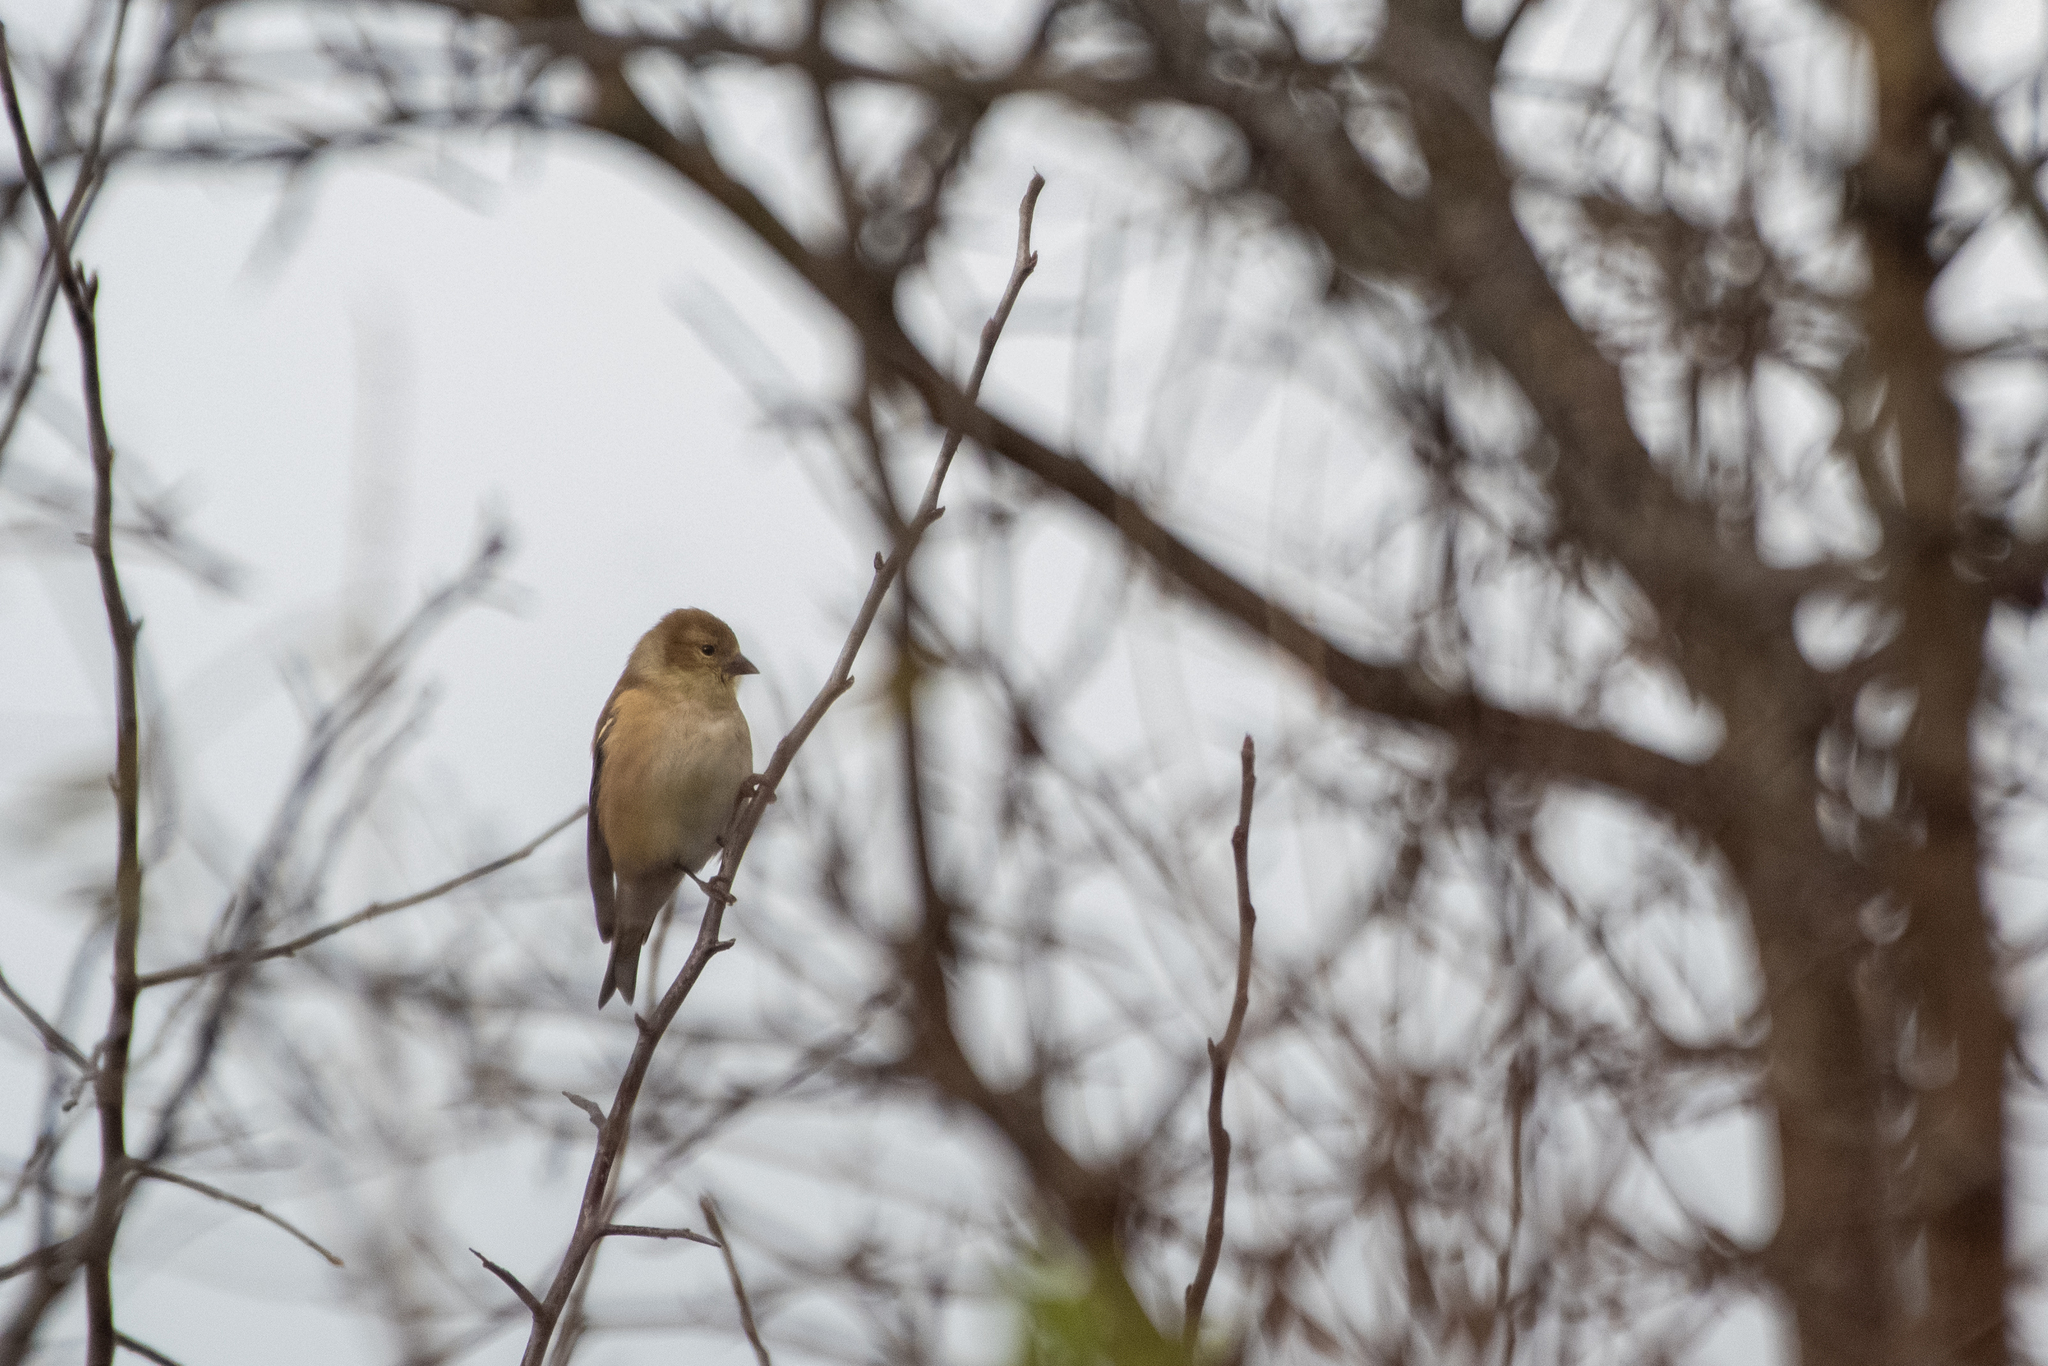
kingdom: Animalia
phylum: Chordata
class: Aves
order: Passeriformes
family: Fringillidae
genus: Spinus
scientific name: Spinus tristis
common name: American goldfinch
